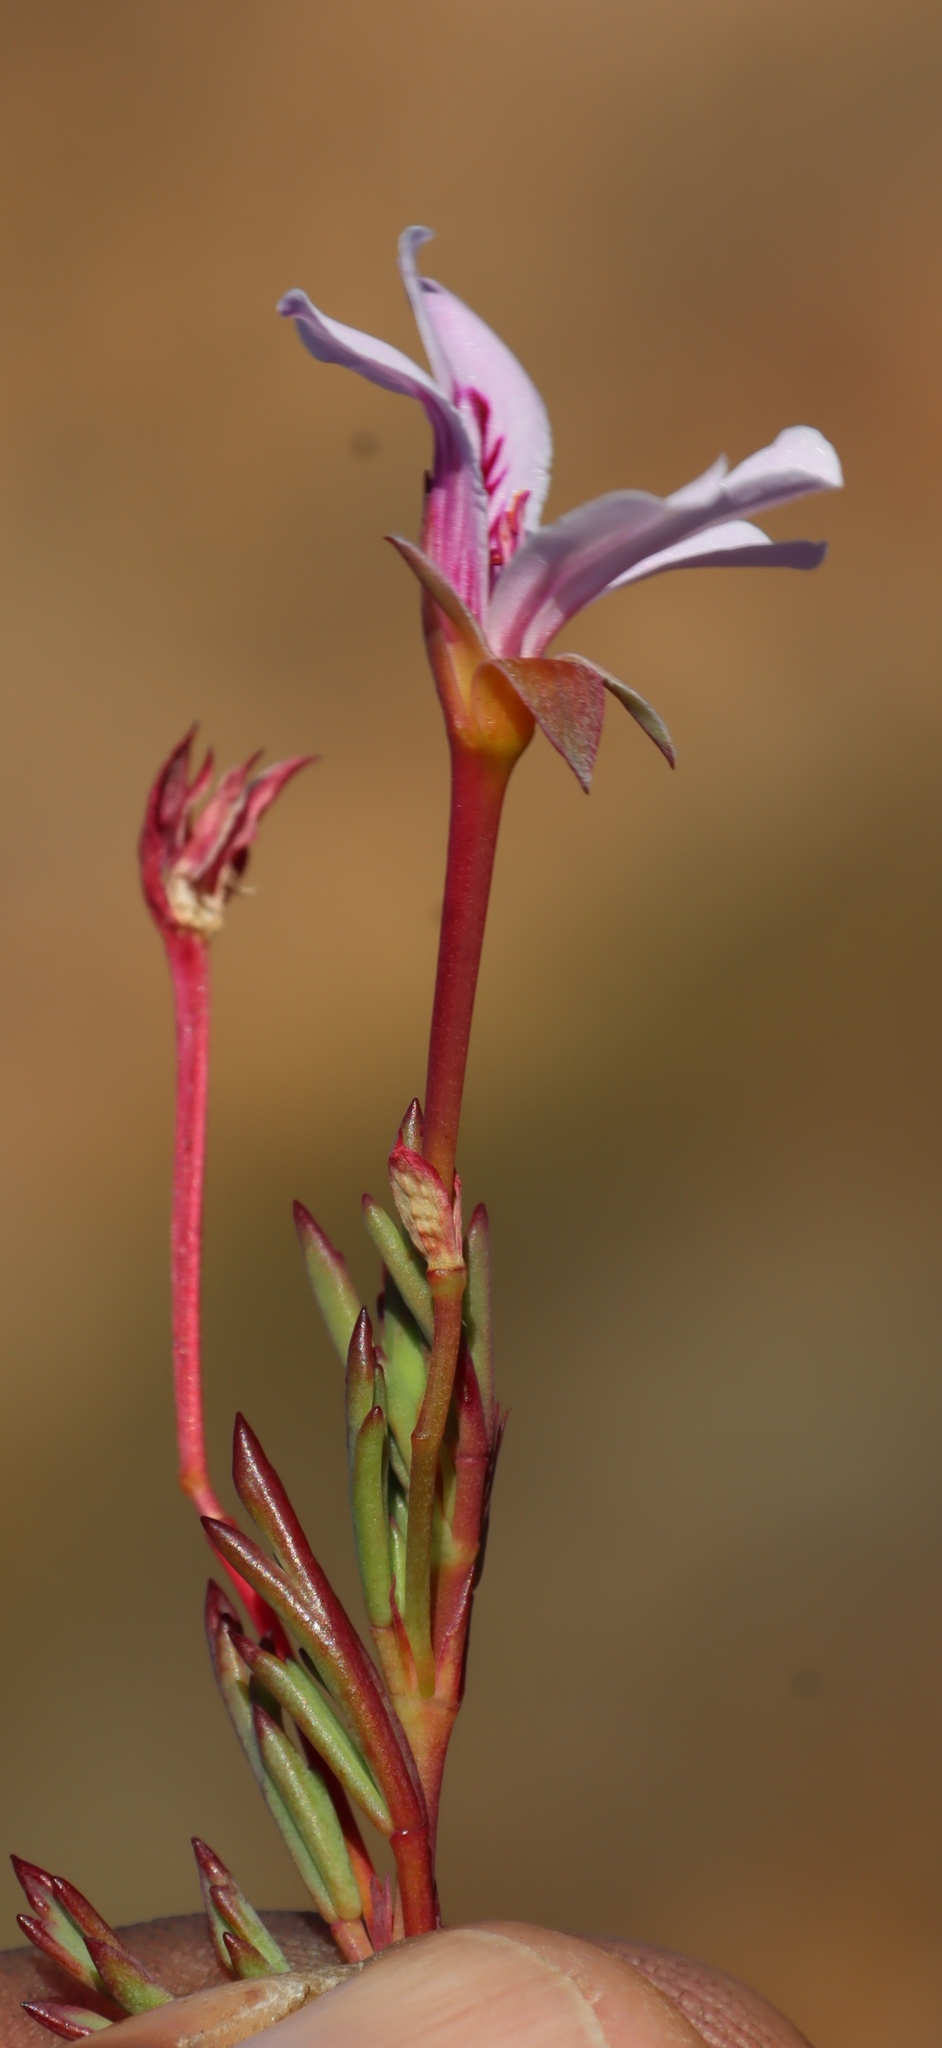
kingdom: Plantae
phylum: Tracheophyta
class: Magnoliopsida
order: Geraniales
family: Geraniaceae
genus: Pelargonium
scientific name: Pelargonium laevigatum
